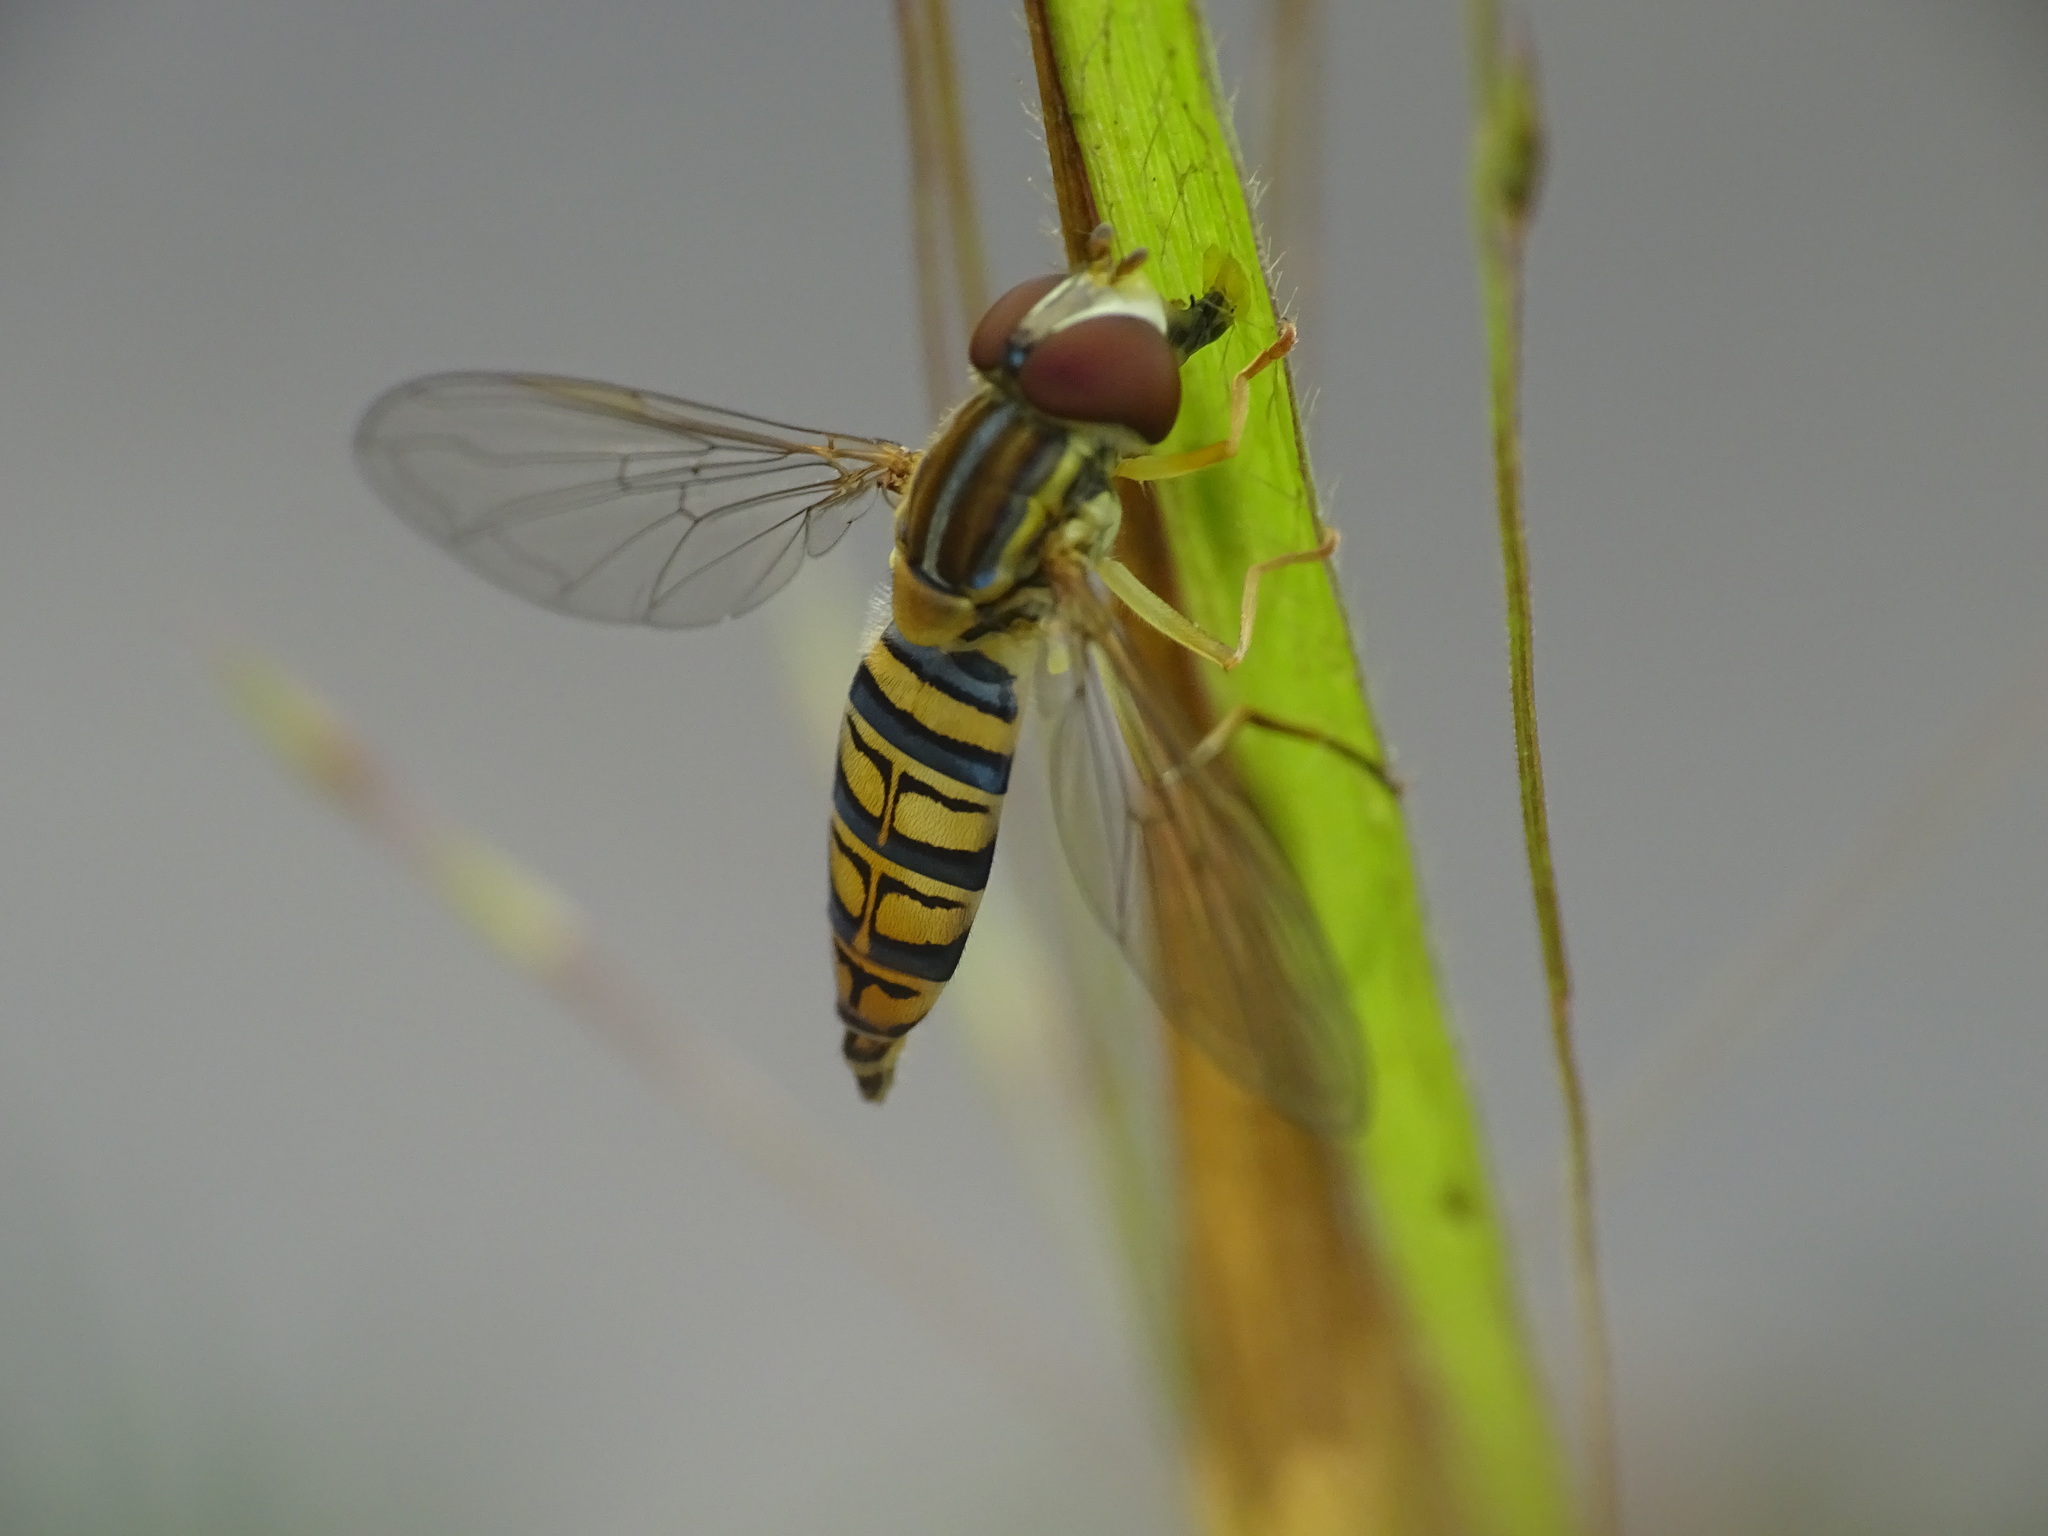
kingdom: Animalia
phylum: Arthropoda
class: Insecta
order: Diptera
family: Syrphidae
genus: Toxomerus
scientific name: Toxomerus politus
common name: Maize calligrapher
